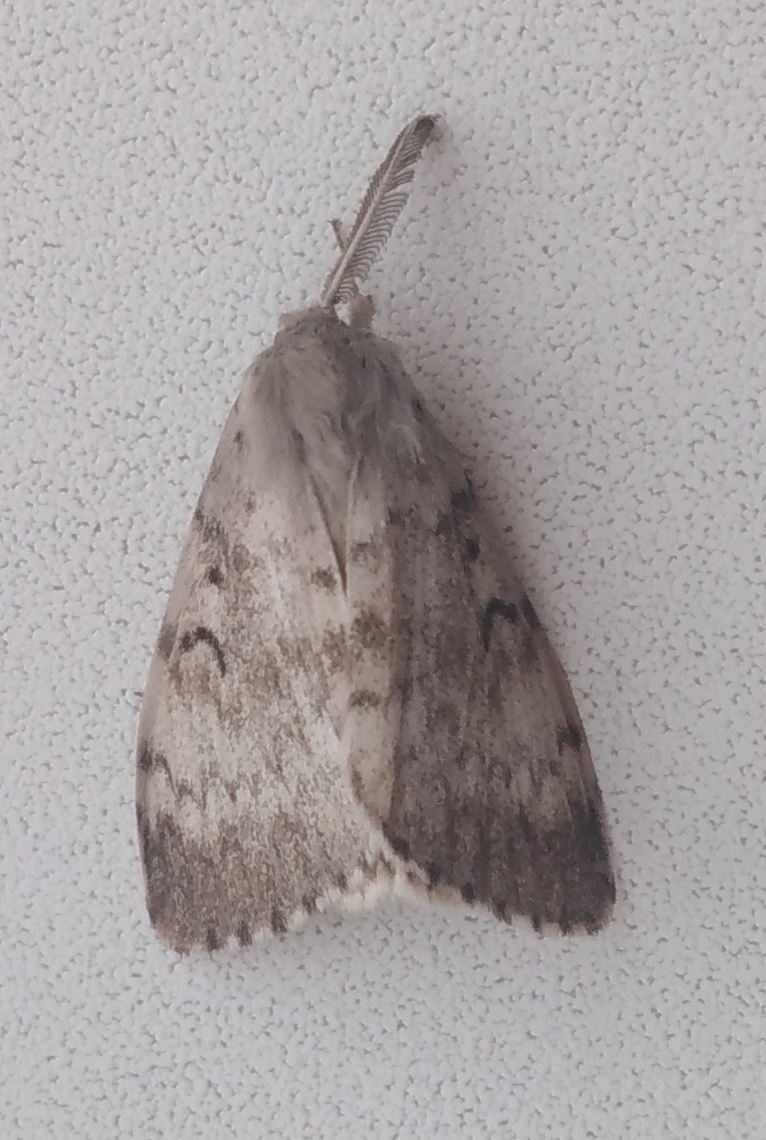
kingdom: Animalia
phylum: Arthropoda
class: Insecta
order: Lepidoptera
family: Erebidae
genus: Lymantria
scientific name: Lymantria dispar
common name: Gypsy moth
